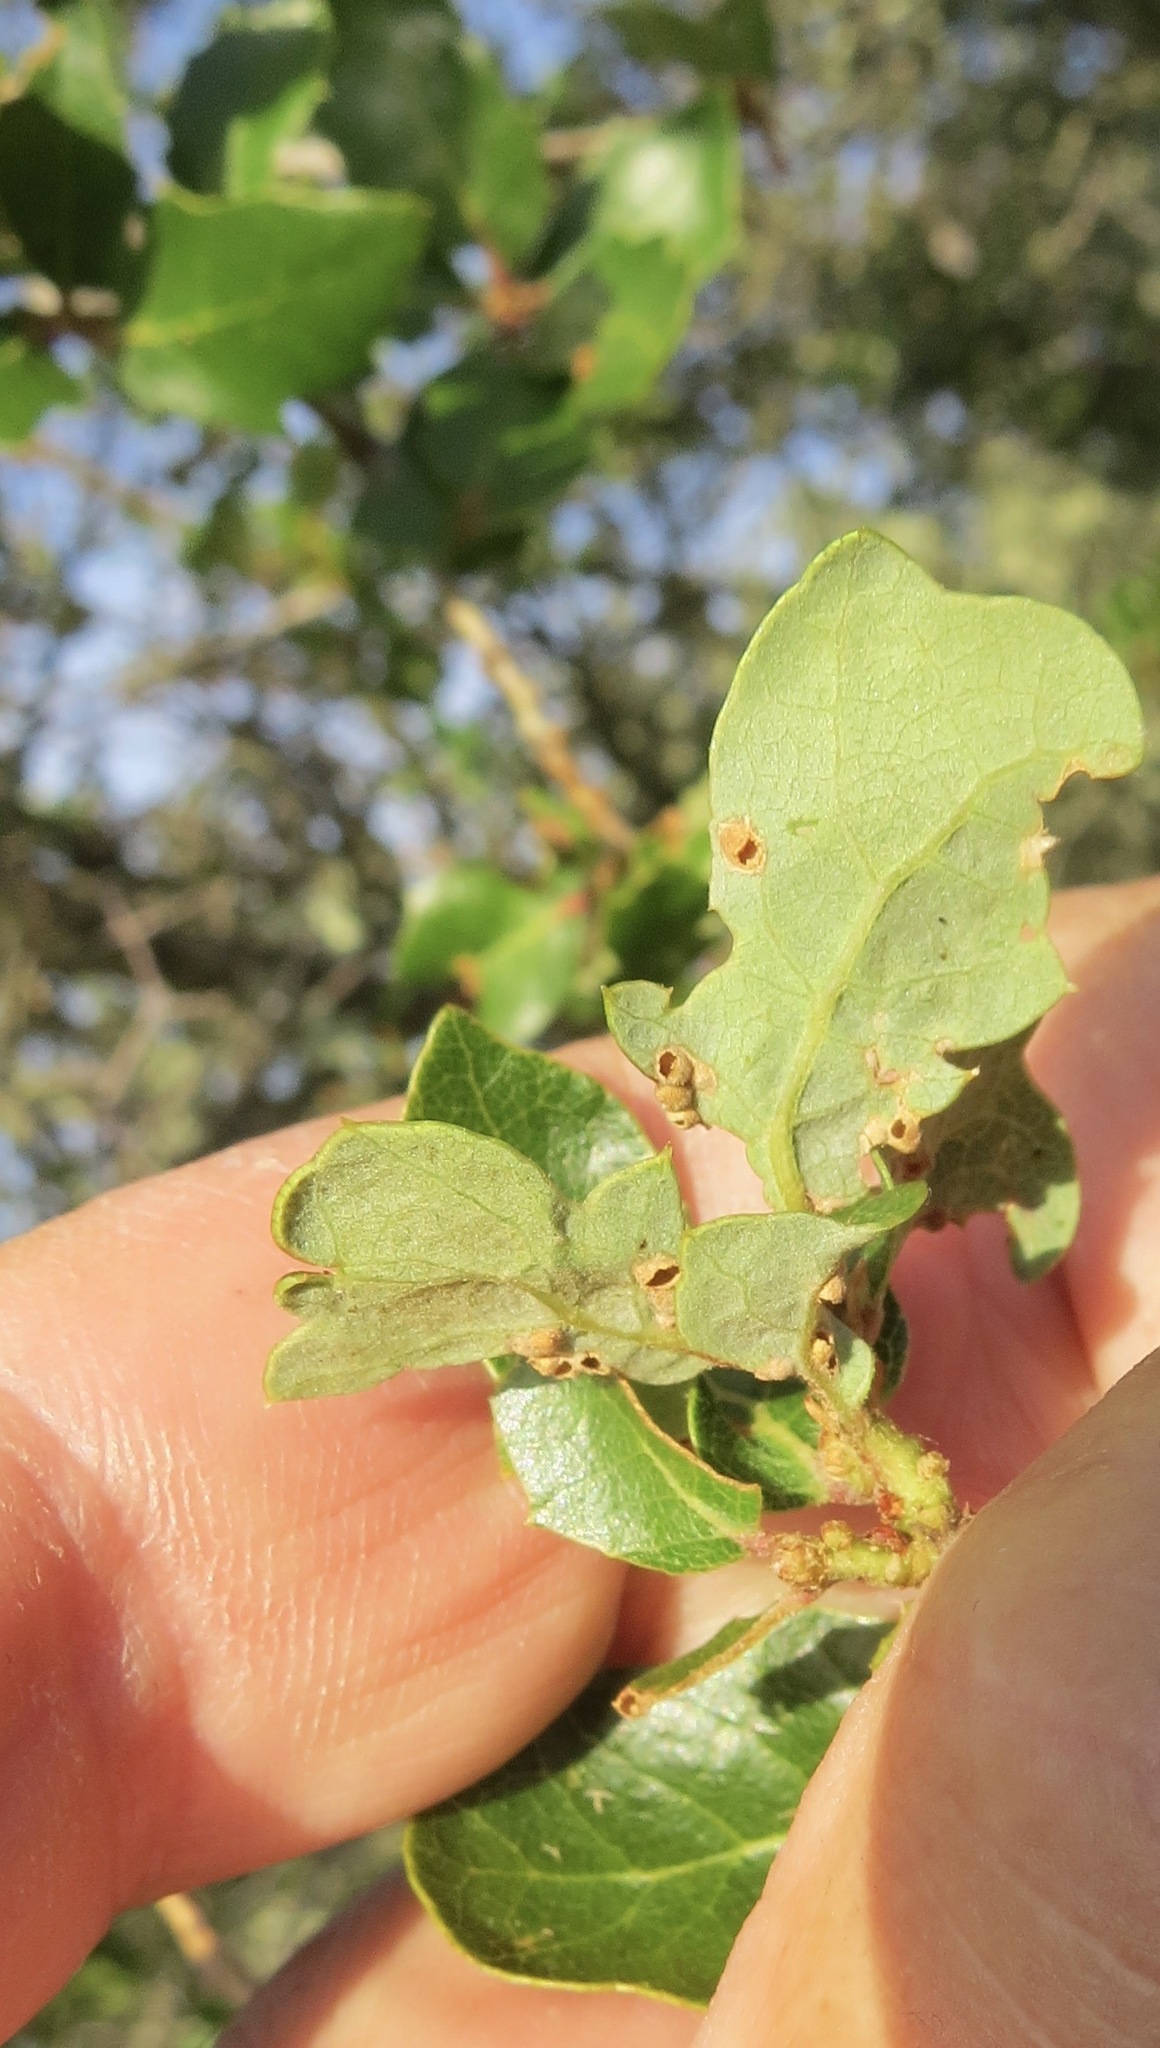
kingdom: Animalia
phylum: Arthropoda
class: Insecta
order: Hymenoptera
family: Cynipidae
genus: Neuroterus
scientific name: Neuroterus saltarius
